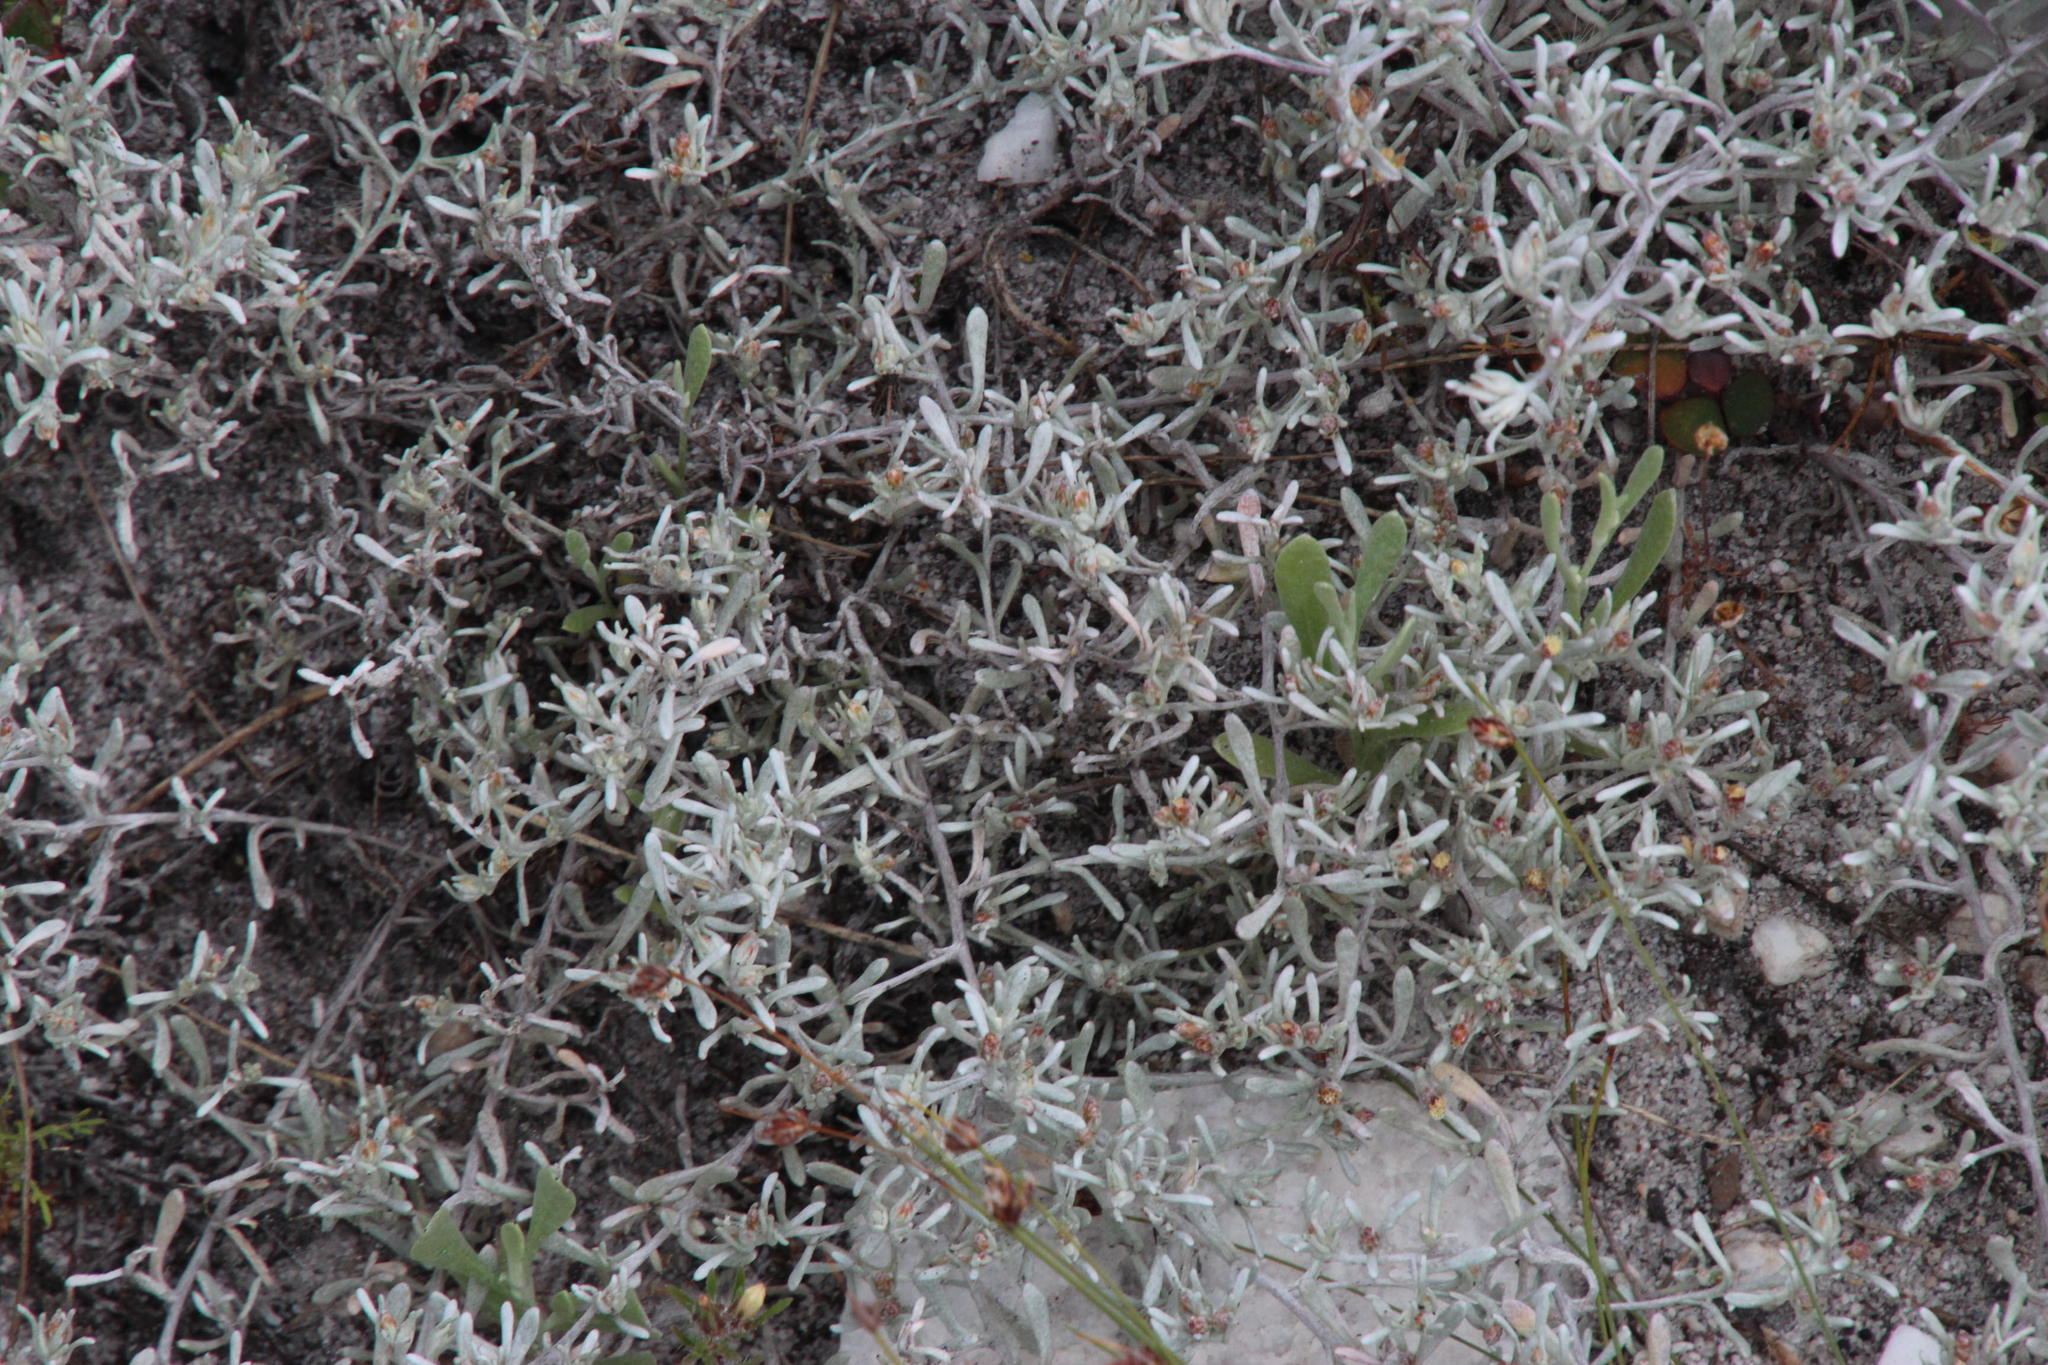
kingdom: Plantae
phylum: Tracheophyta
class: Magnoliopsida
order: Asterales
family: Asteraceae
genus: Helichrysum
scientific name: Helichrysum tinctum
